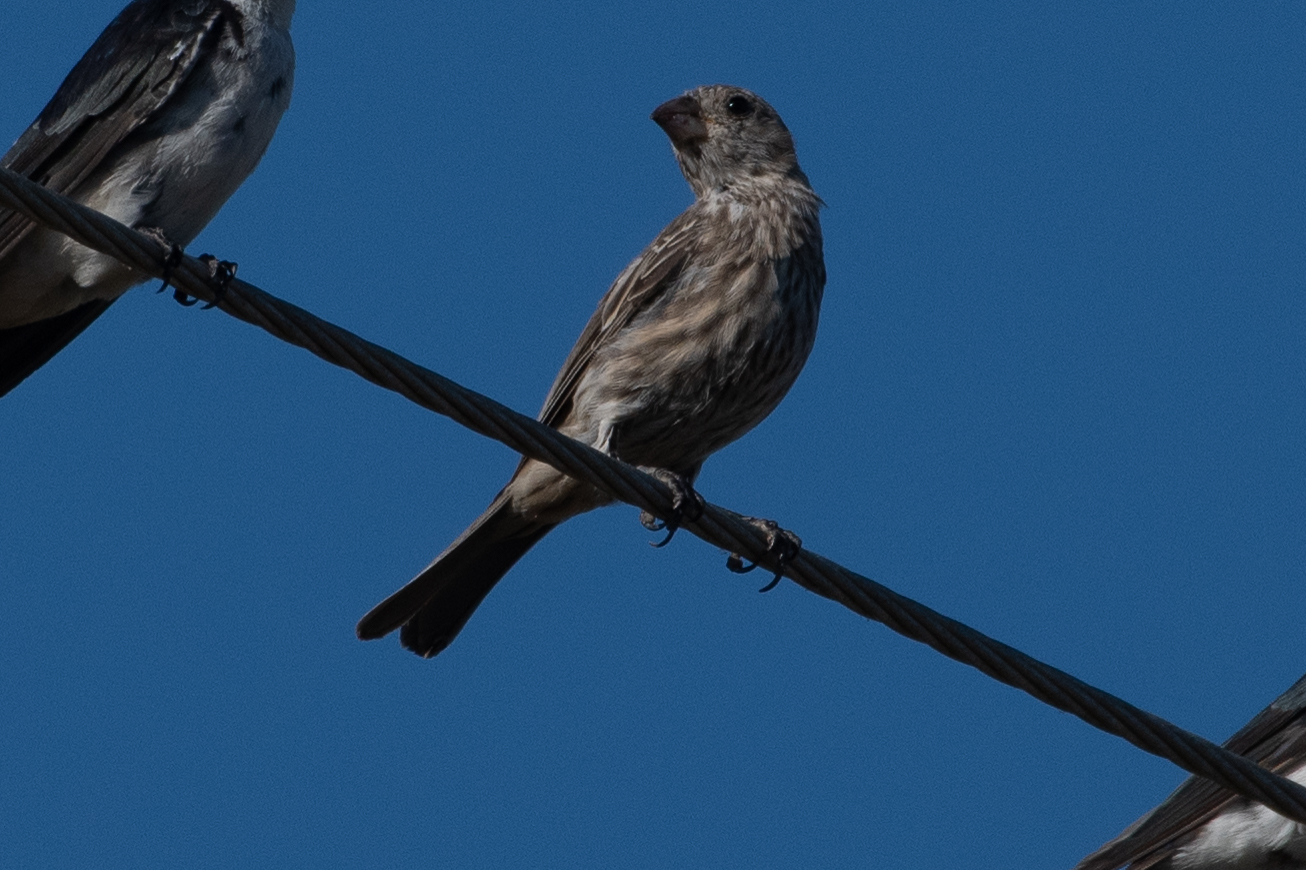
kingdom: Animalia
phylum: Chordata
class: Aves
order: Passeriformes
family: Fringillidae
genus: Haemorhous
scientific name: Haemorhous mexicanus
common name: House finch
